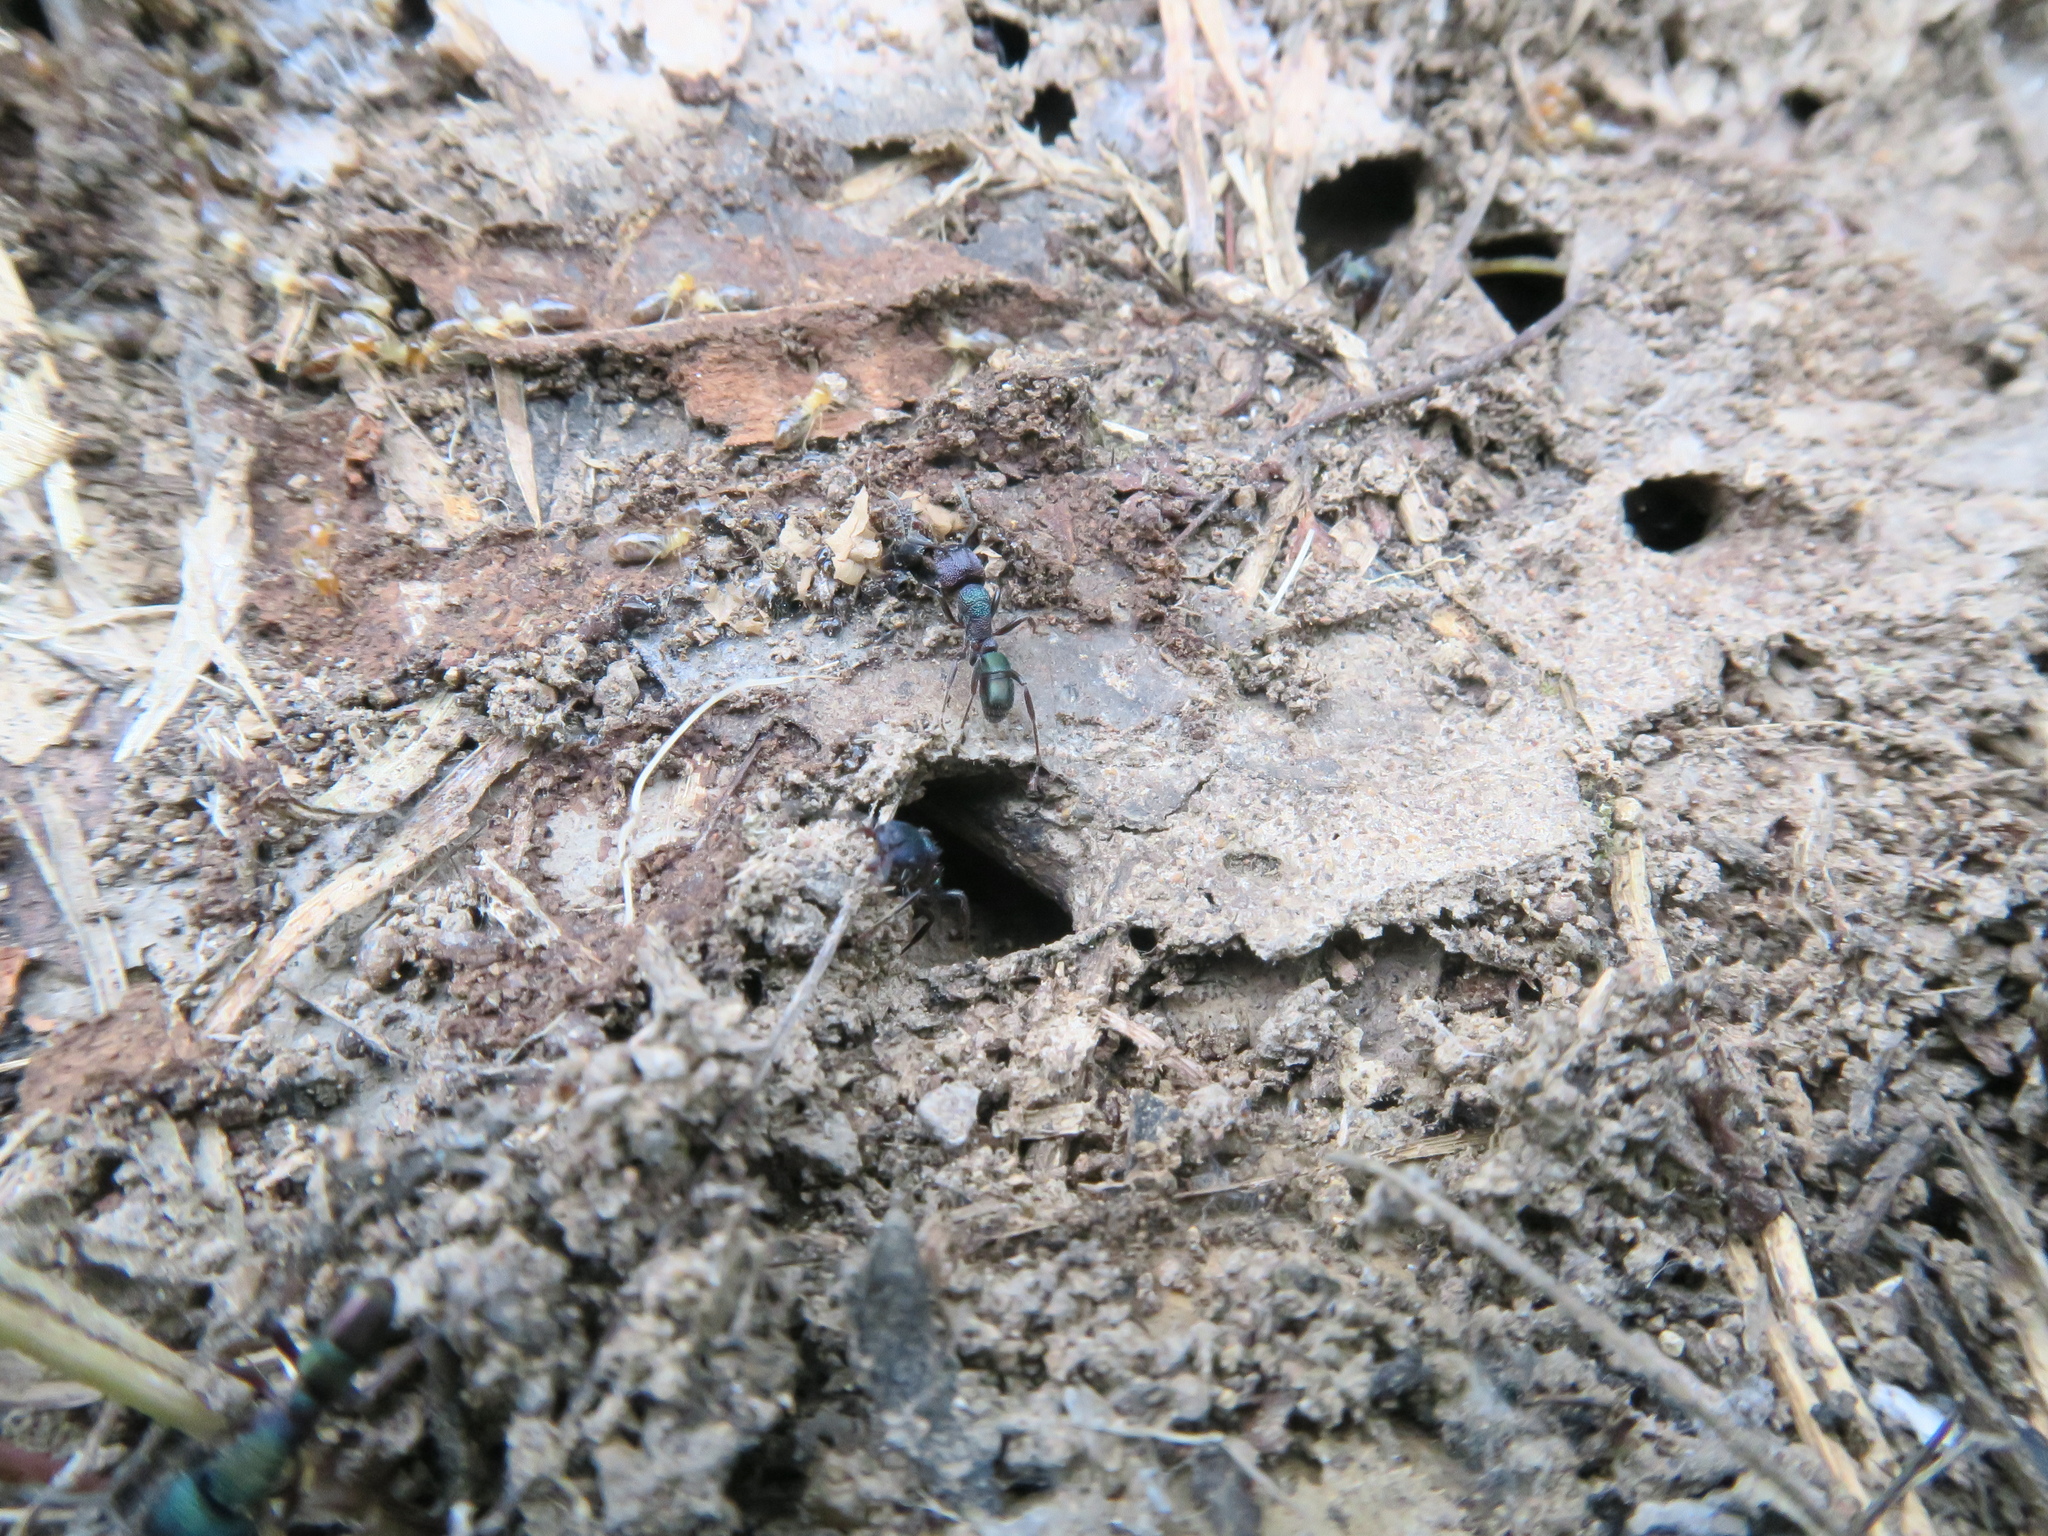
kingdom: Animalia
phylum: Arthropoda
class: Insecta
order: Hymenoptera
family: Formicidae
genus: Rhytidoponera
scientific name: Rhytidoponera metallica
